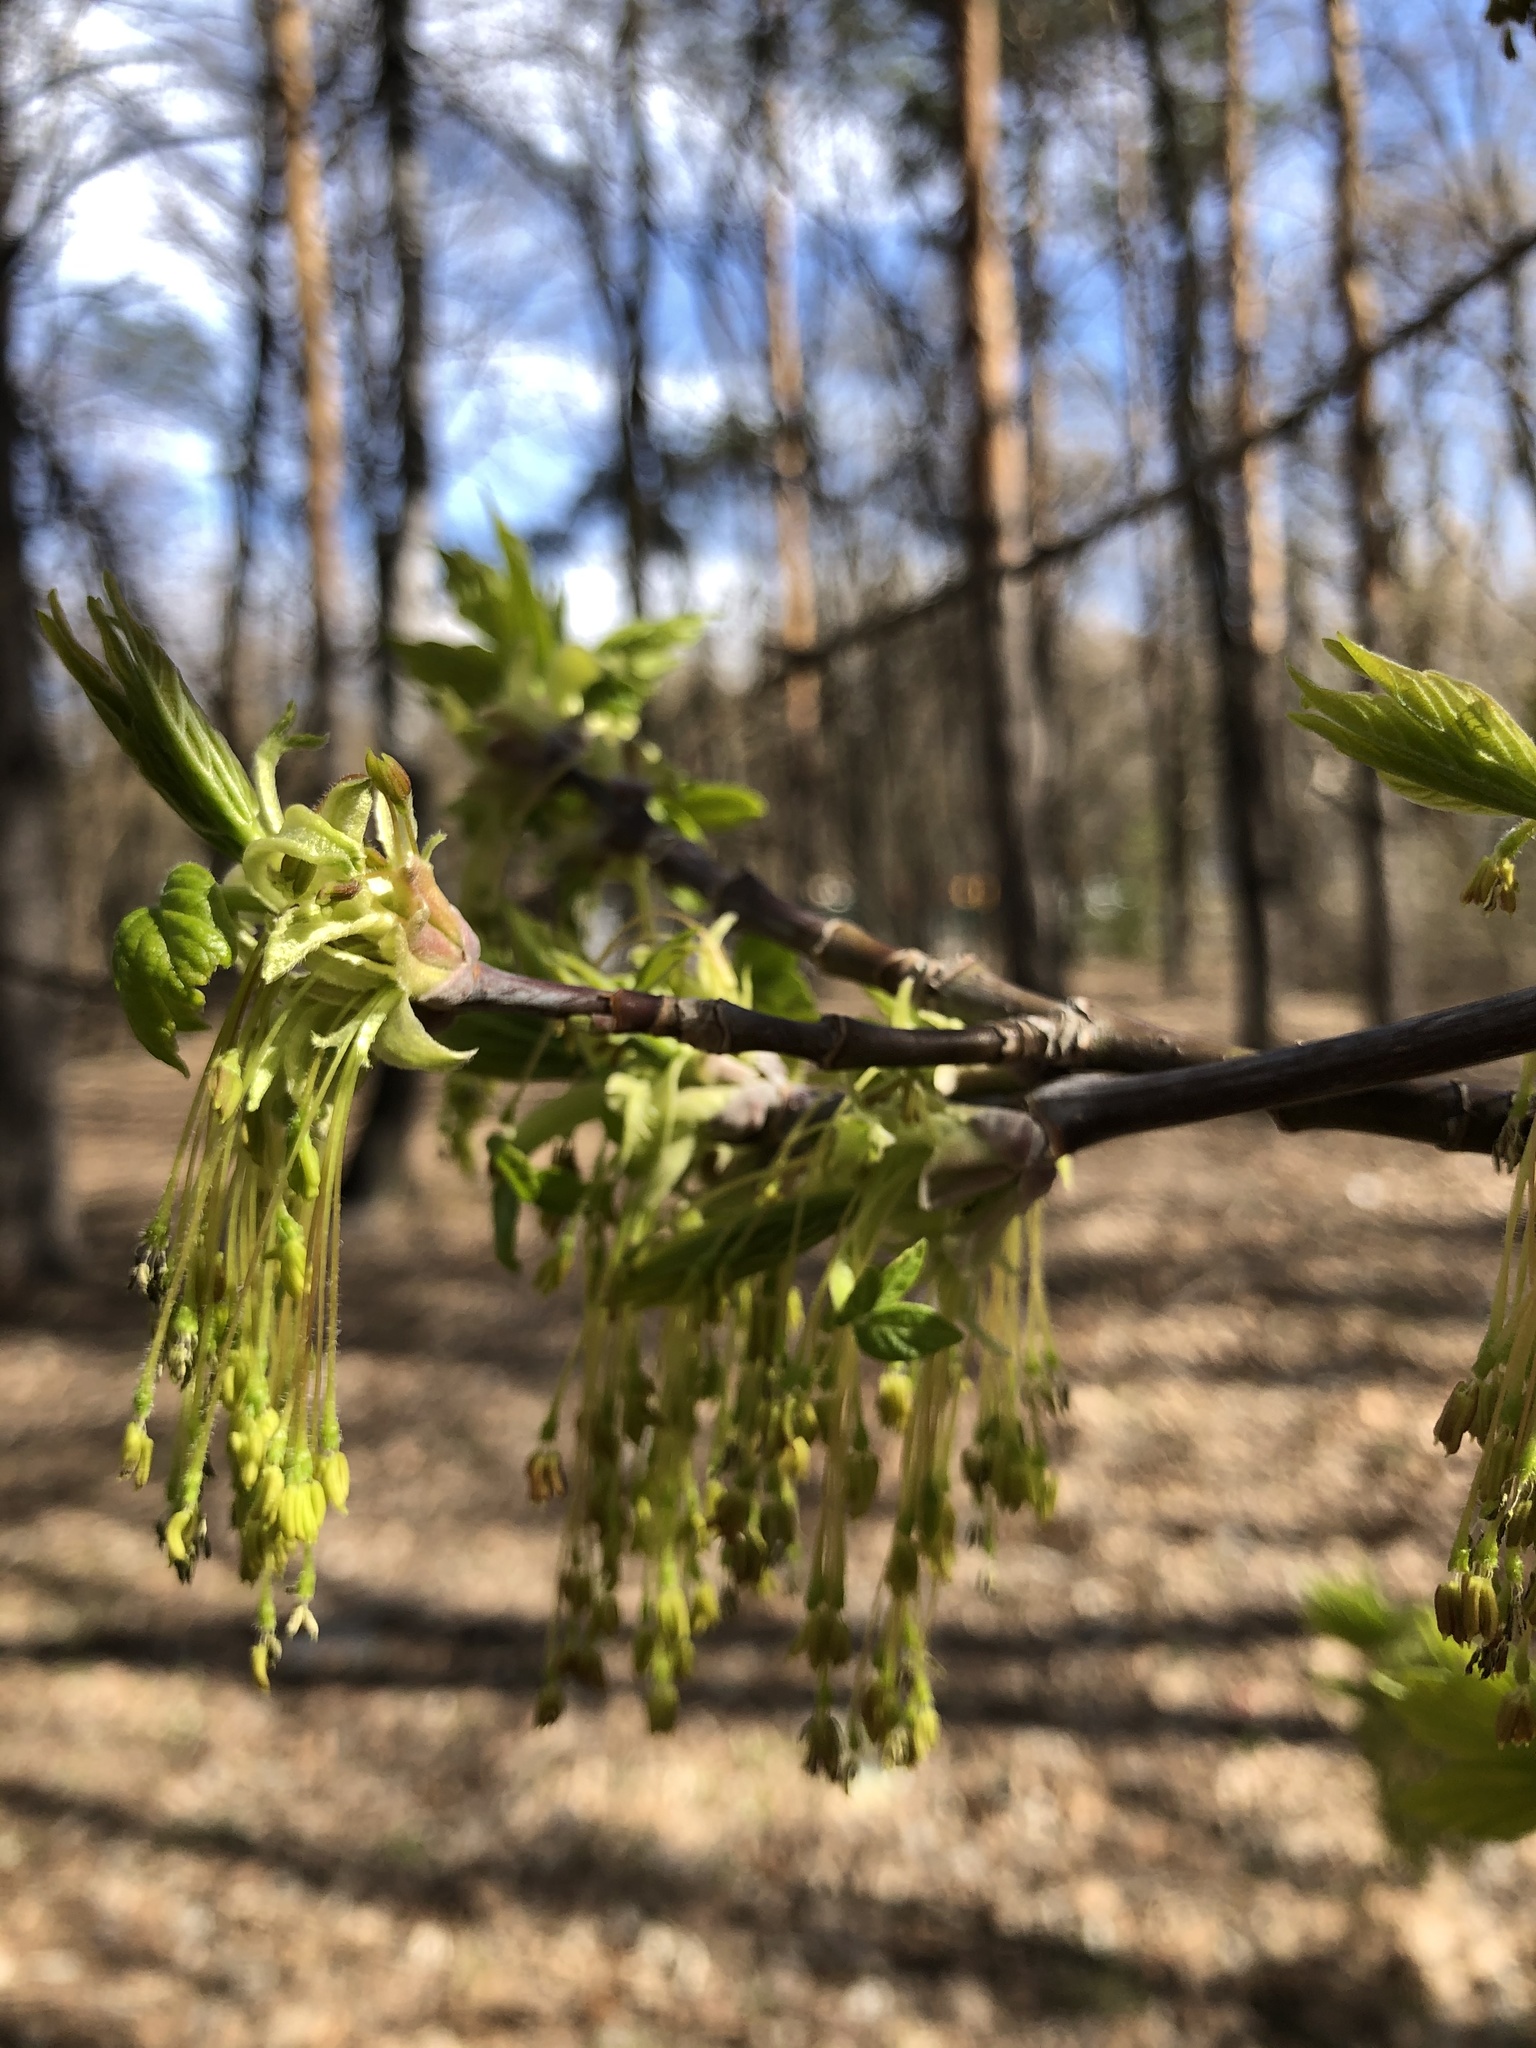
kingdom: Plantae
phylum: Tracheophyta
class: Magnoliopsida
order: Sapindales
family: Sapindaceae
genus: Acer
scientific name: Acer negundo
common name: Ashleaf maple
